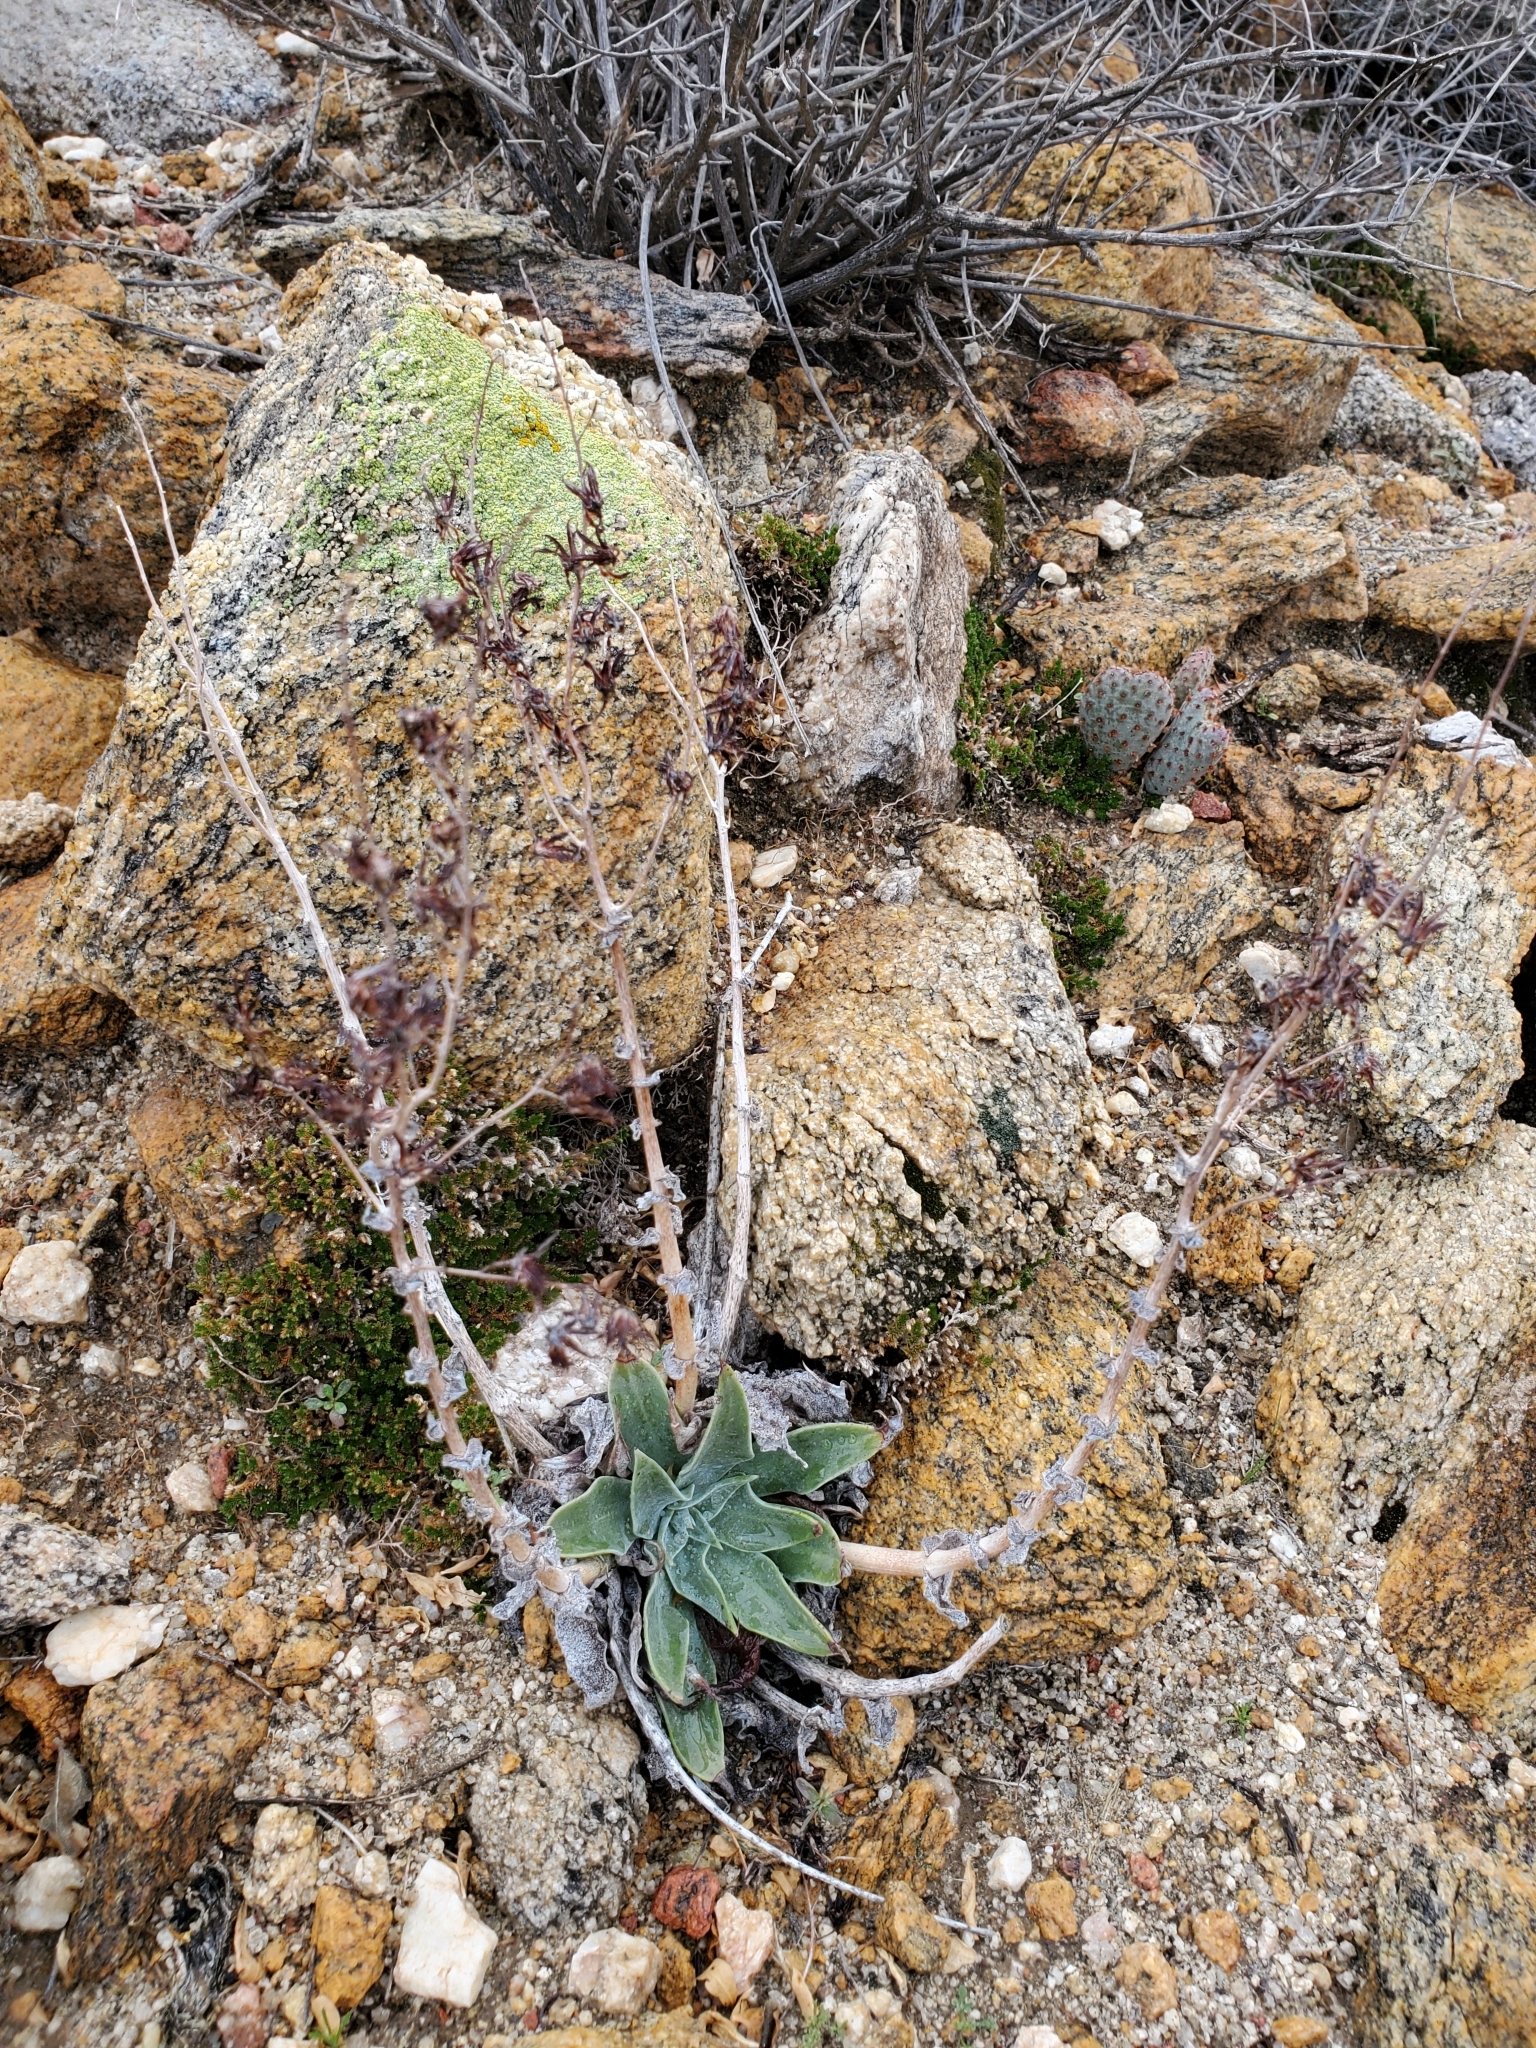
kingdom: Plantae
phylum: Tracheophyta
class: Magnoliopsida
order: Saxifragales
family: Crassulaceae
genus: Dudleya
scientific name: Dudleya arizonica
